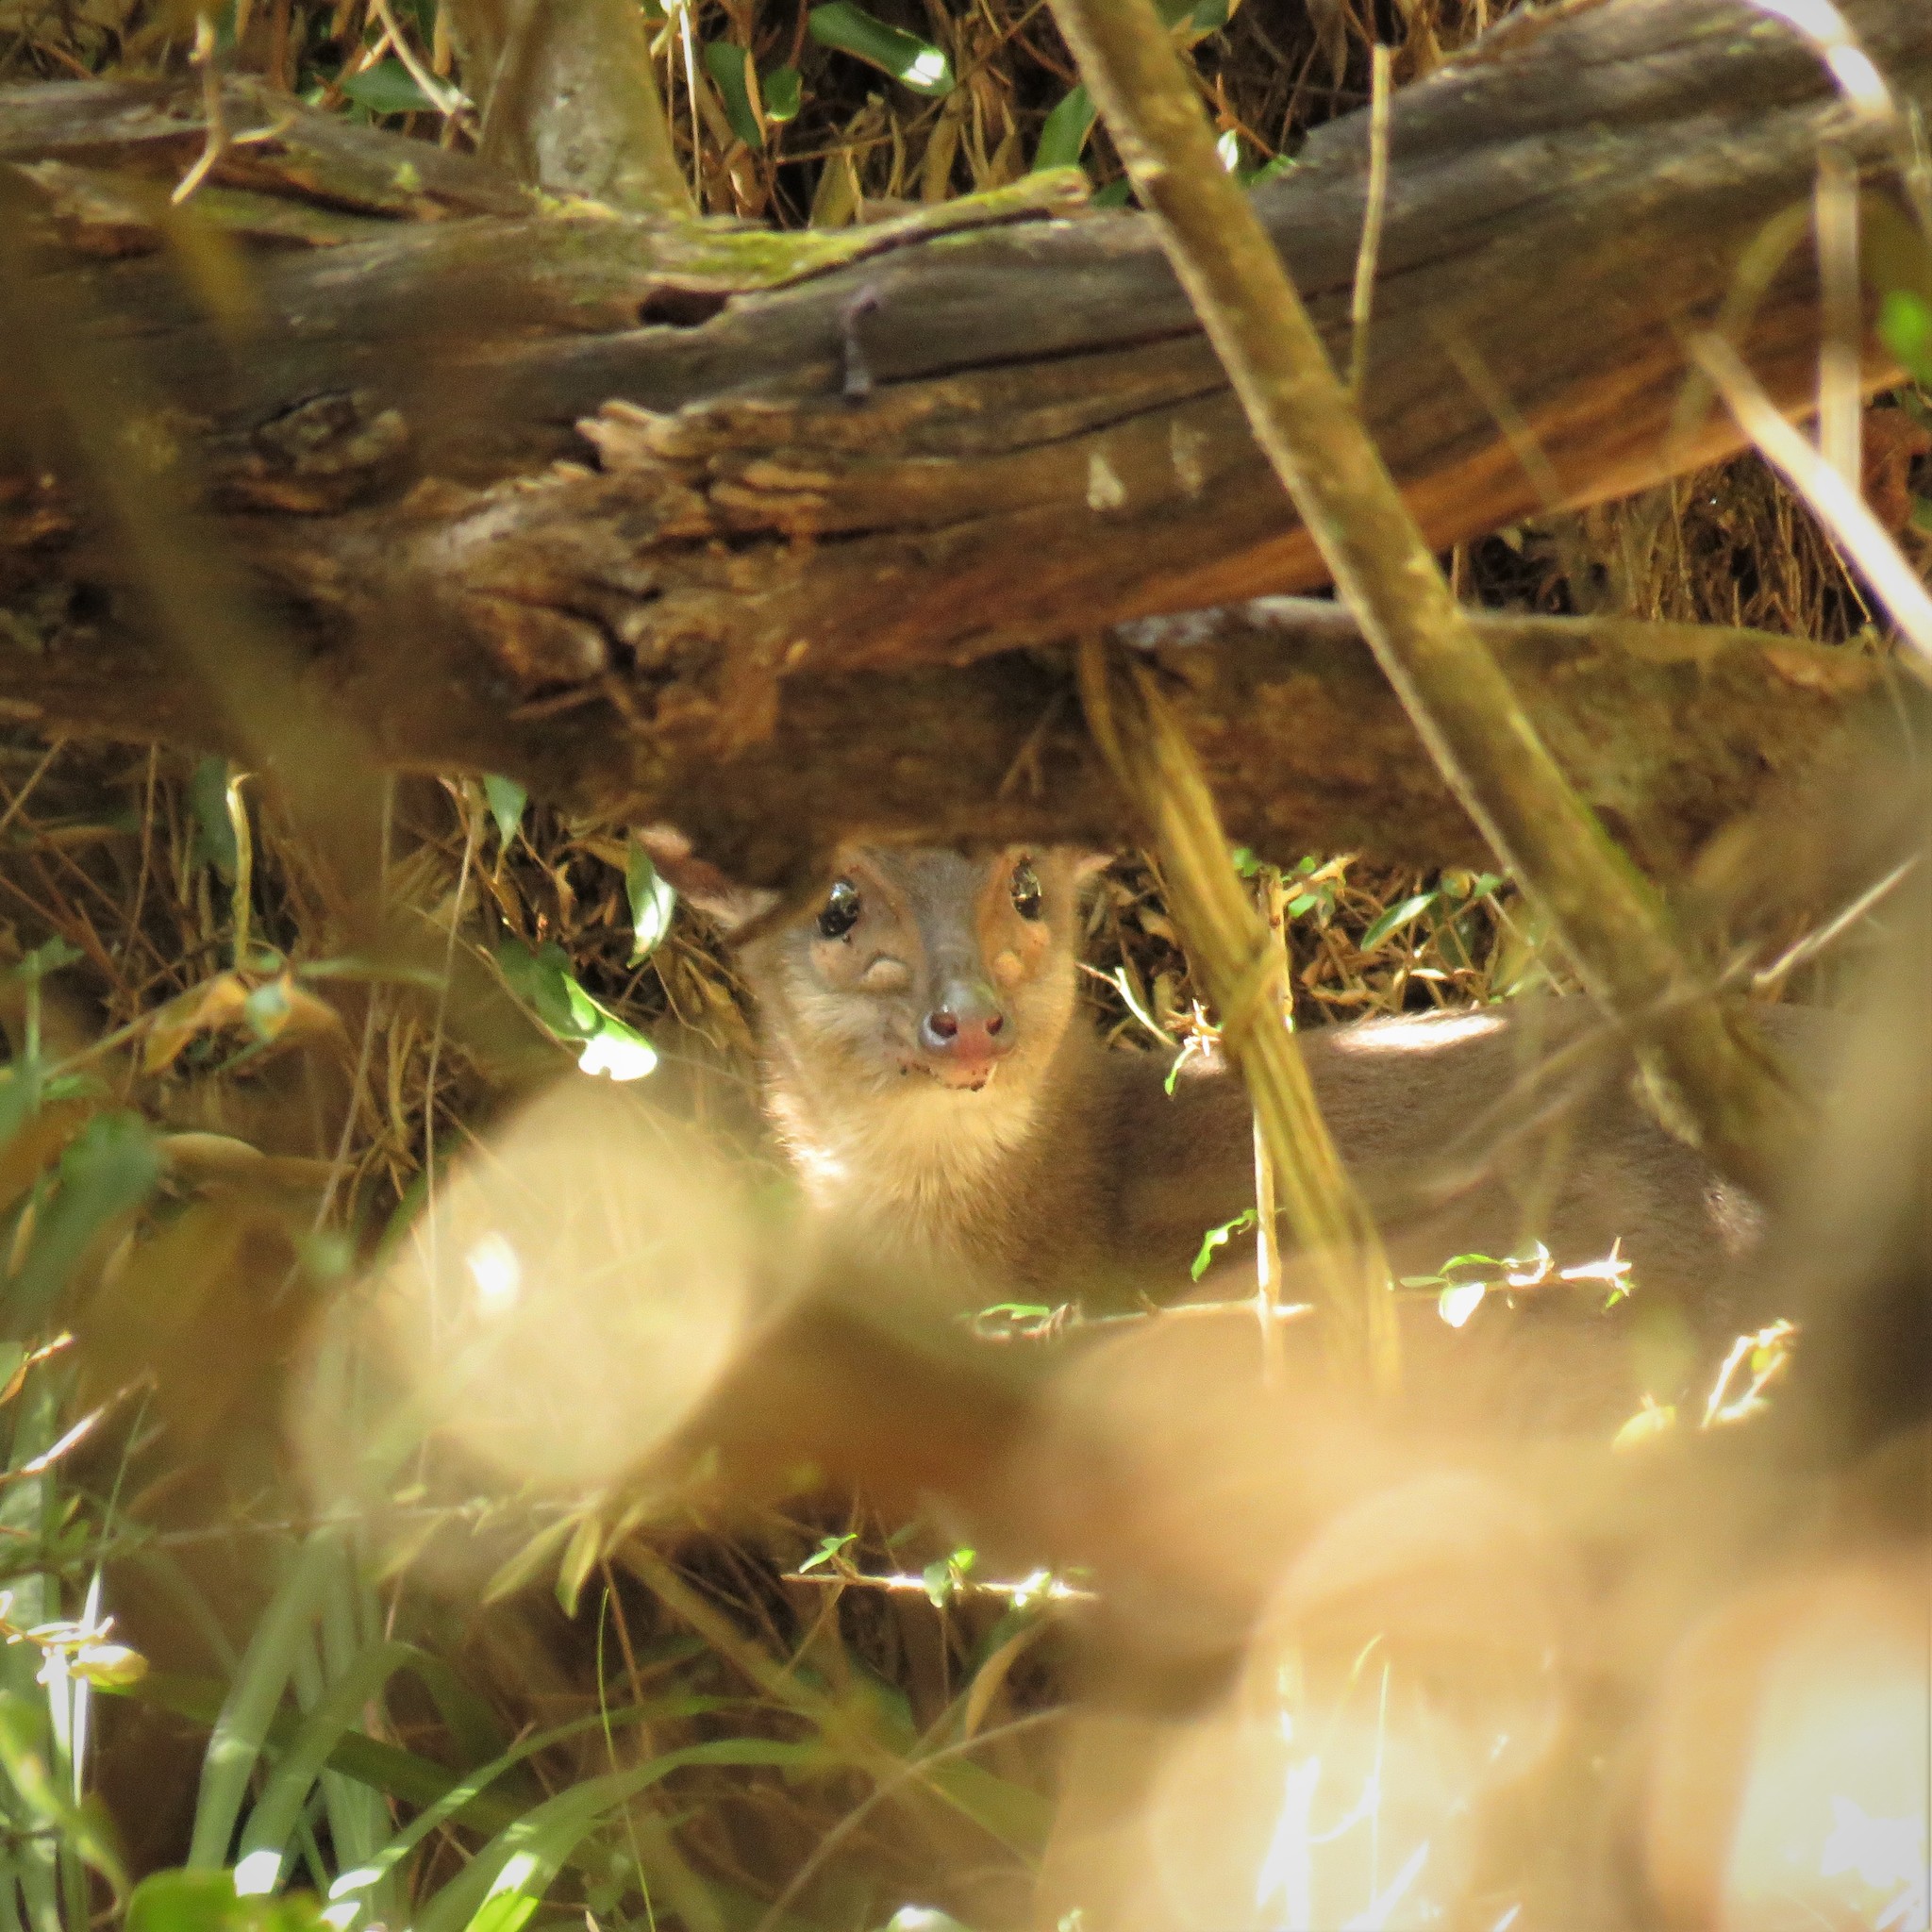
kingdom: Animalia
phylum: Chordata
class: Mammalia
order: Artiodactyla
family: Bovidae
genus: Philantomba
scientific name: Philantomba monticola
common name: Blue duiker
